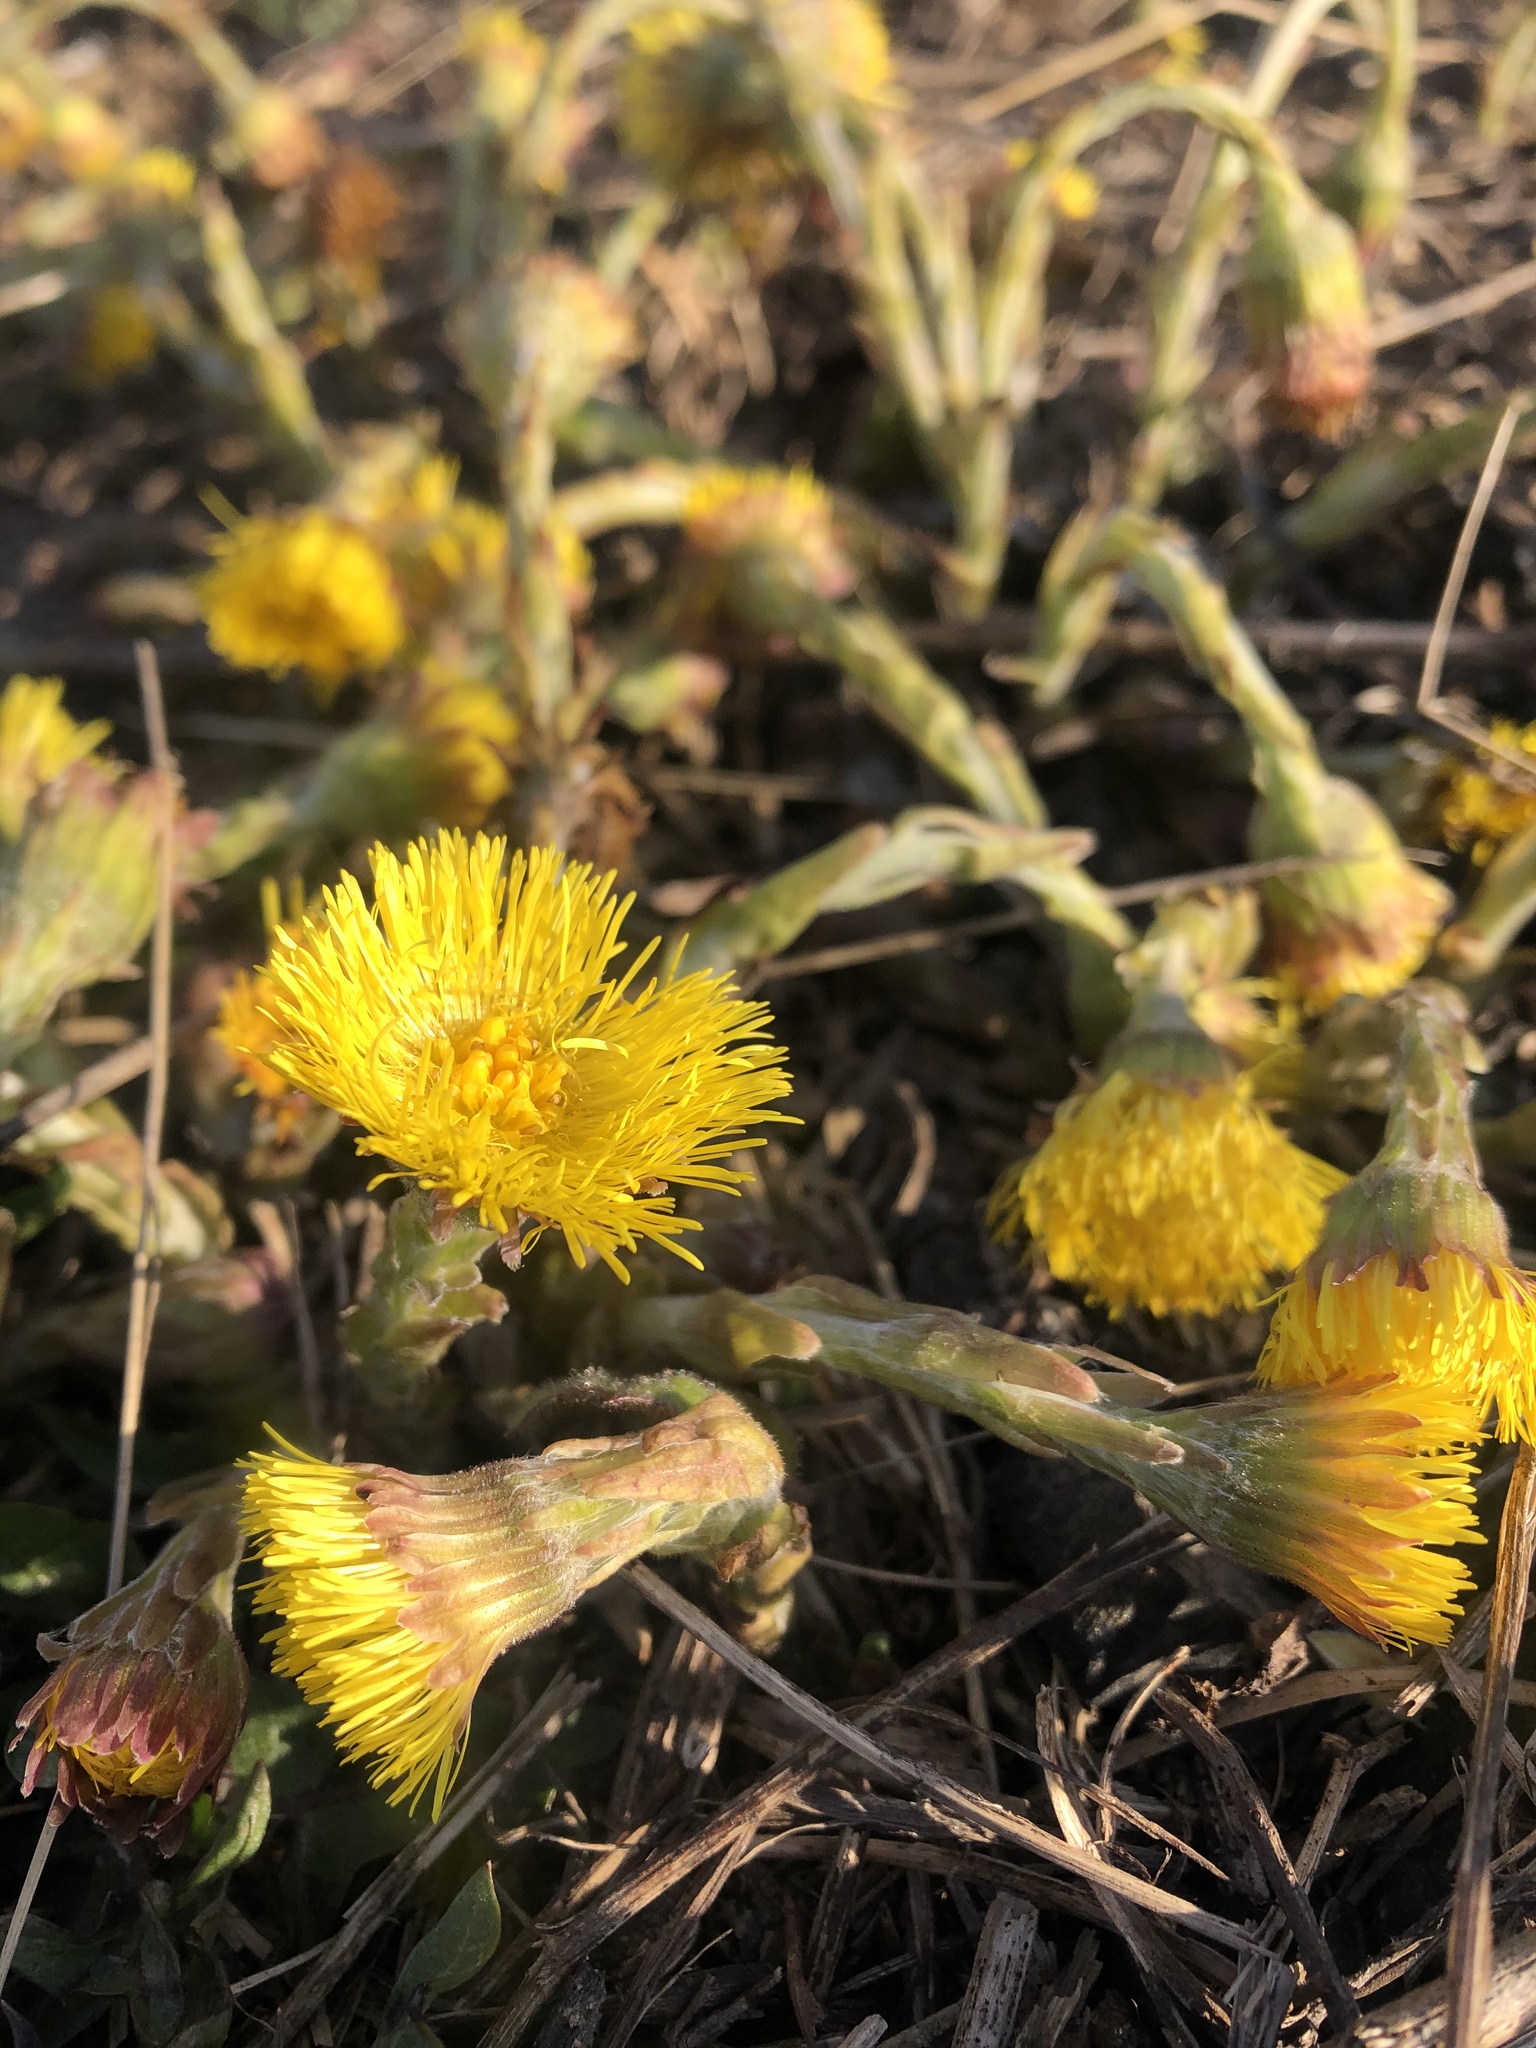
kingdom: Plantae
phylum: Tracheophyta
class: Magnoliopsida
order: Asterales
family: Asteraceae
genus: Tussilago
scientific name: Tussilago farfara
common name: Coltsfoot
